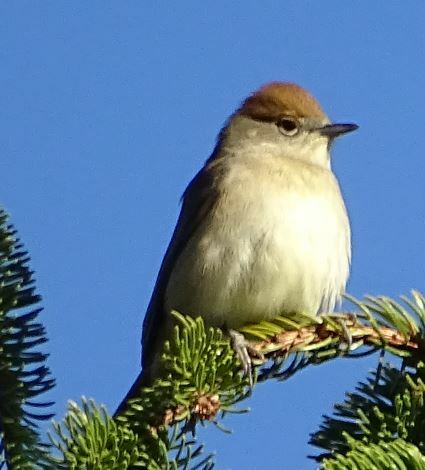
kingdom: Animalia
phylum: Chordata
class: Aves
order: Passeriformes
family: Sylviidae
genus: Sylvia
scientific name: Sylvia atricapilla
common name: Eurasian blackcap
